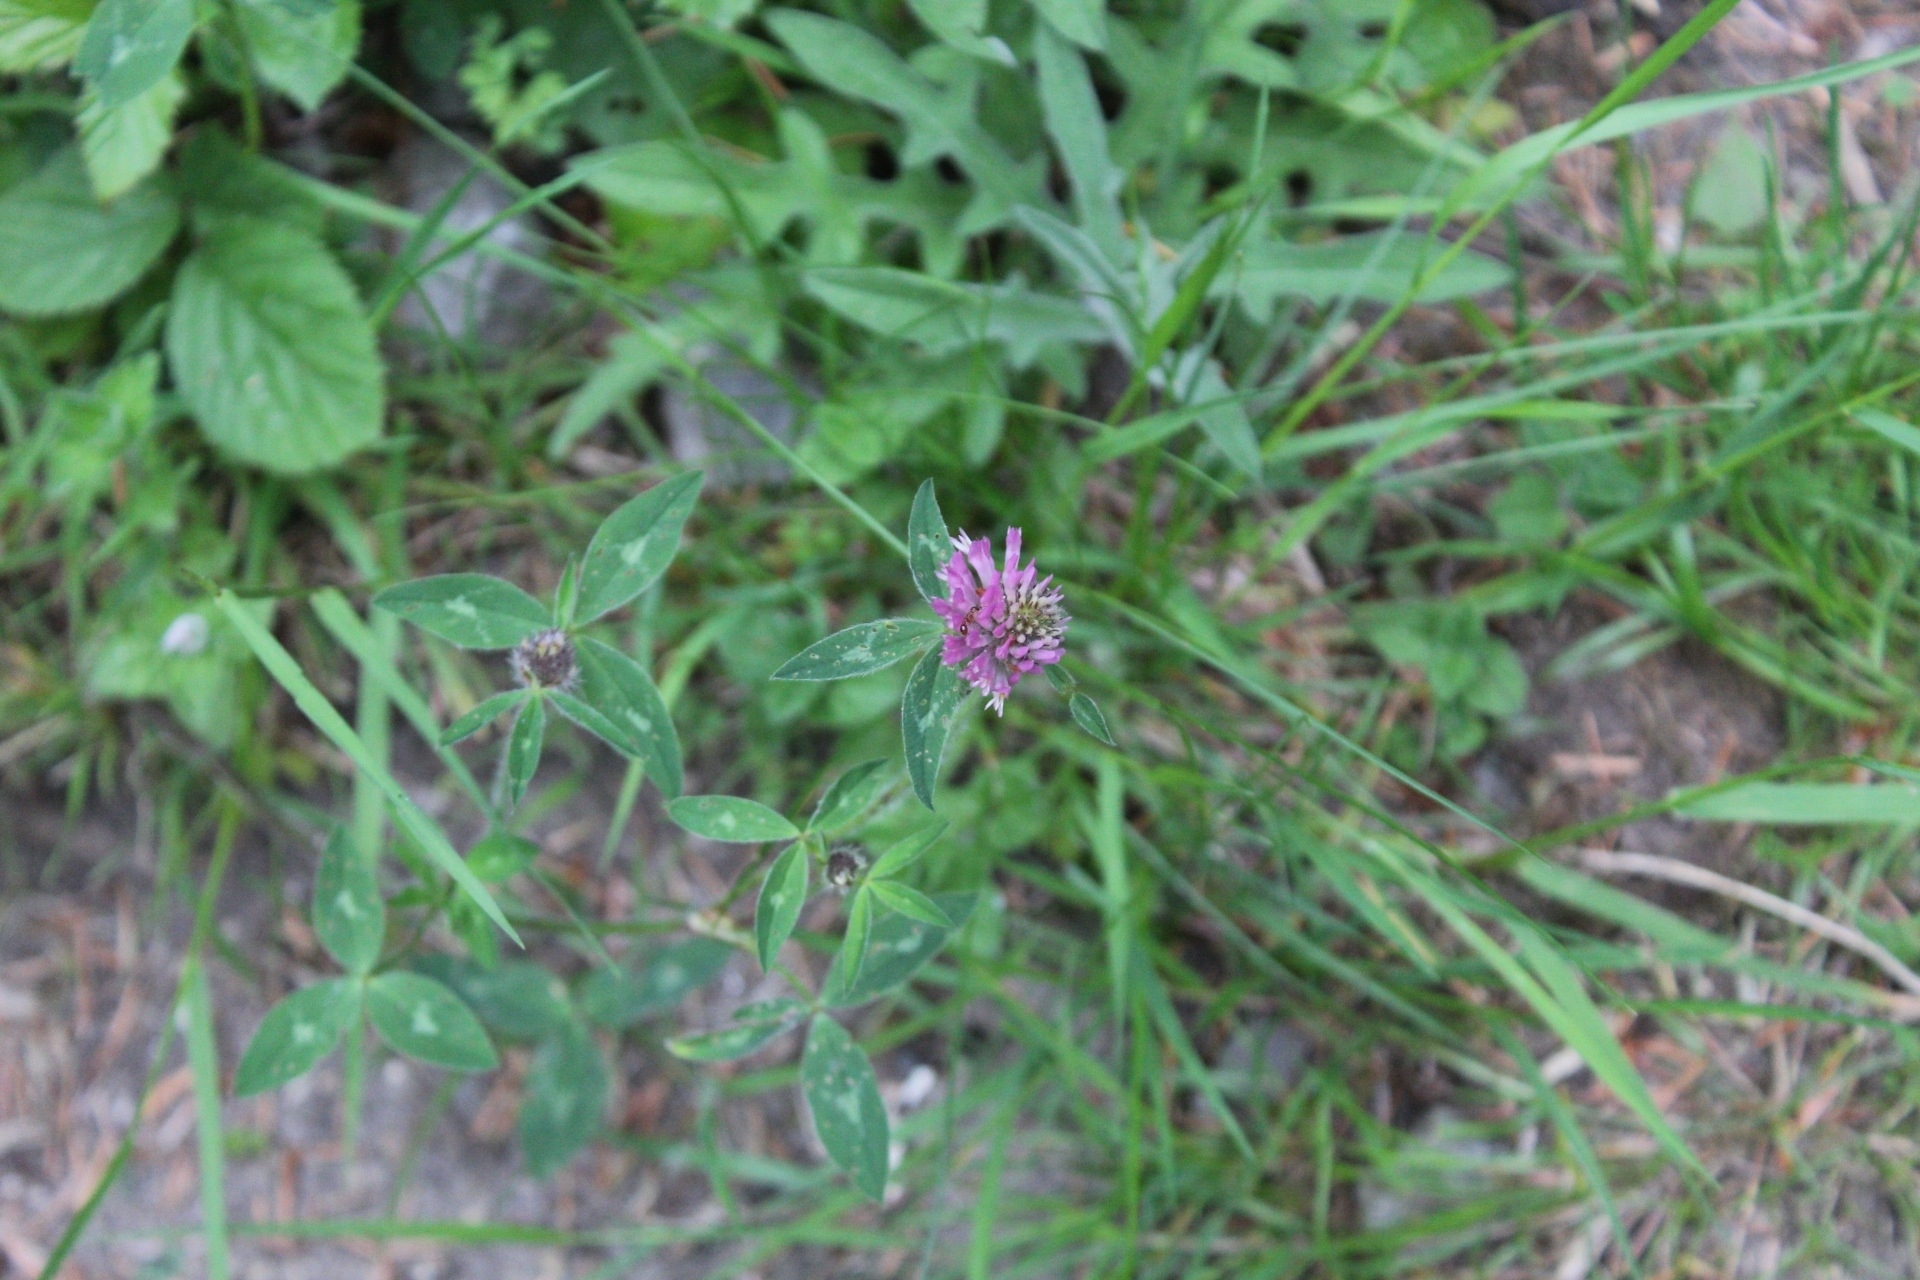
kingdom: Plantae
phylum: Tracheophyta
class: Magnoliopsida
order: Fabales
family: Fabaceae
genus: Trifolium
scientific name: Trifolium pratense
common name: Red clover
